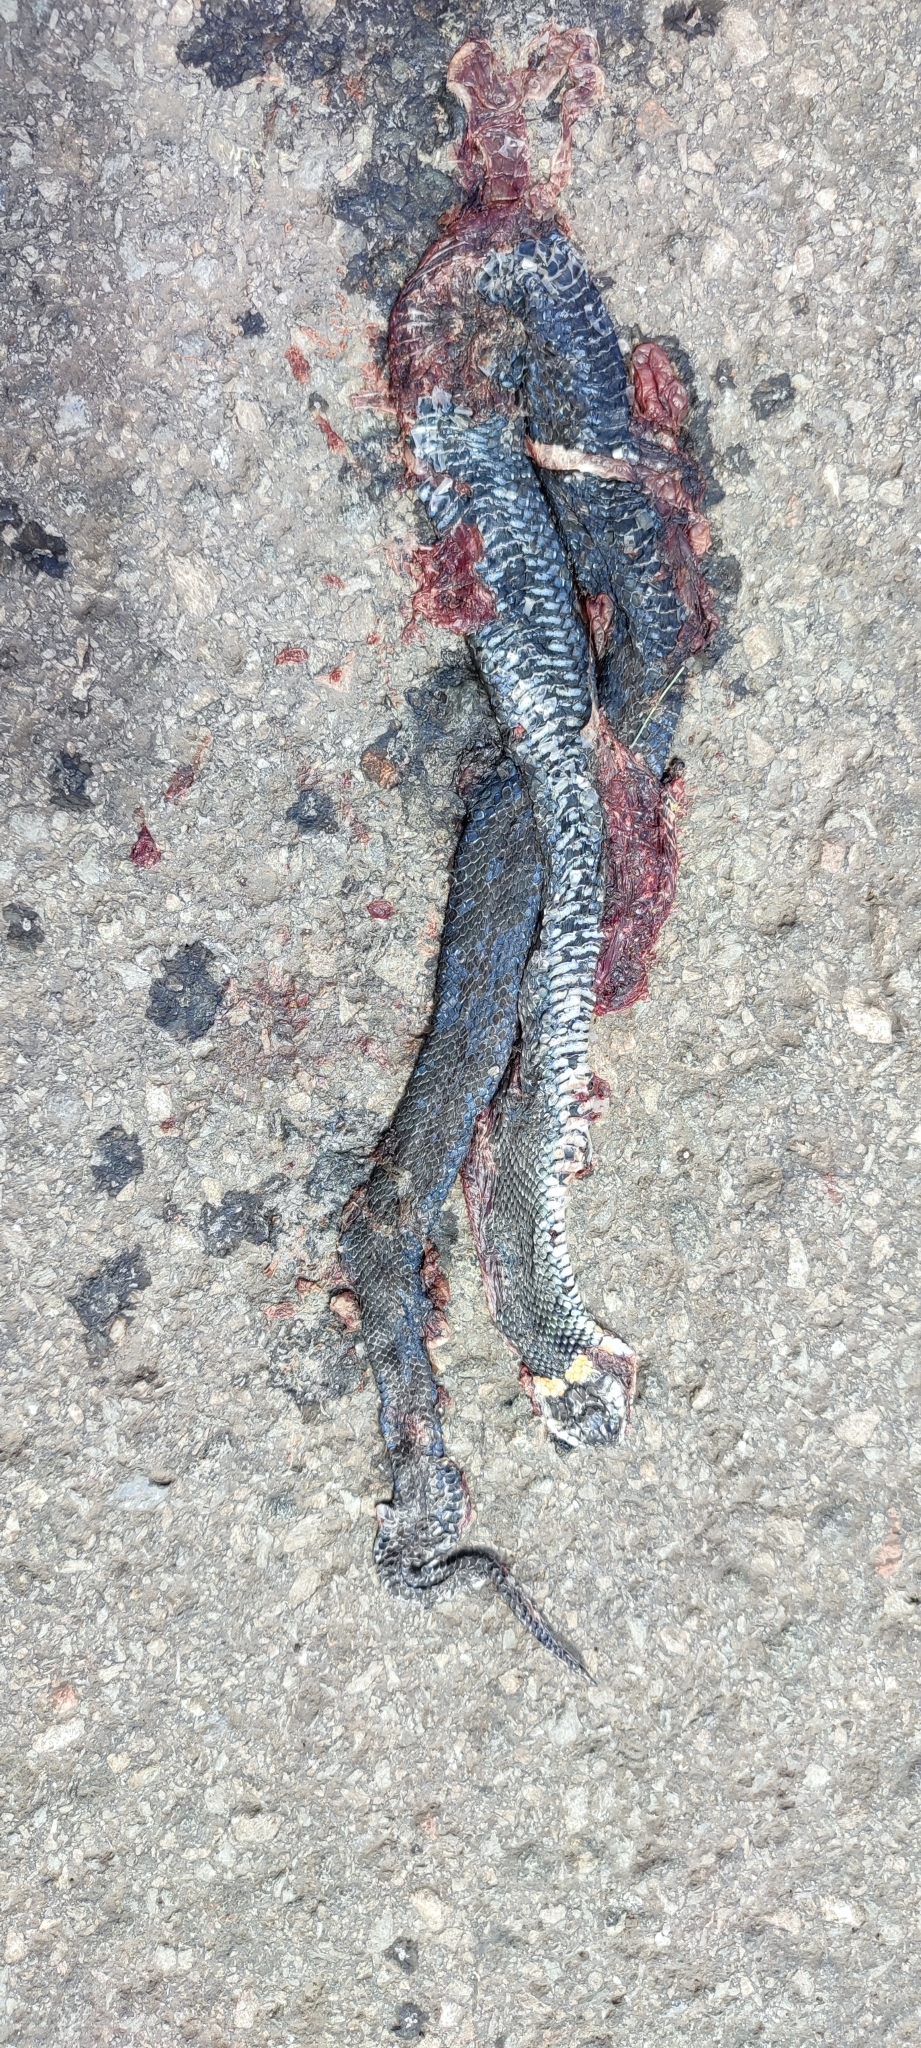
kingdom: Animalia
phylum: Chordata
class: Squamata
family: Colubridae
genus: Natrix
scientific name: Natrix natrix
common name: Grass snake
